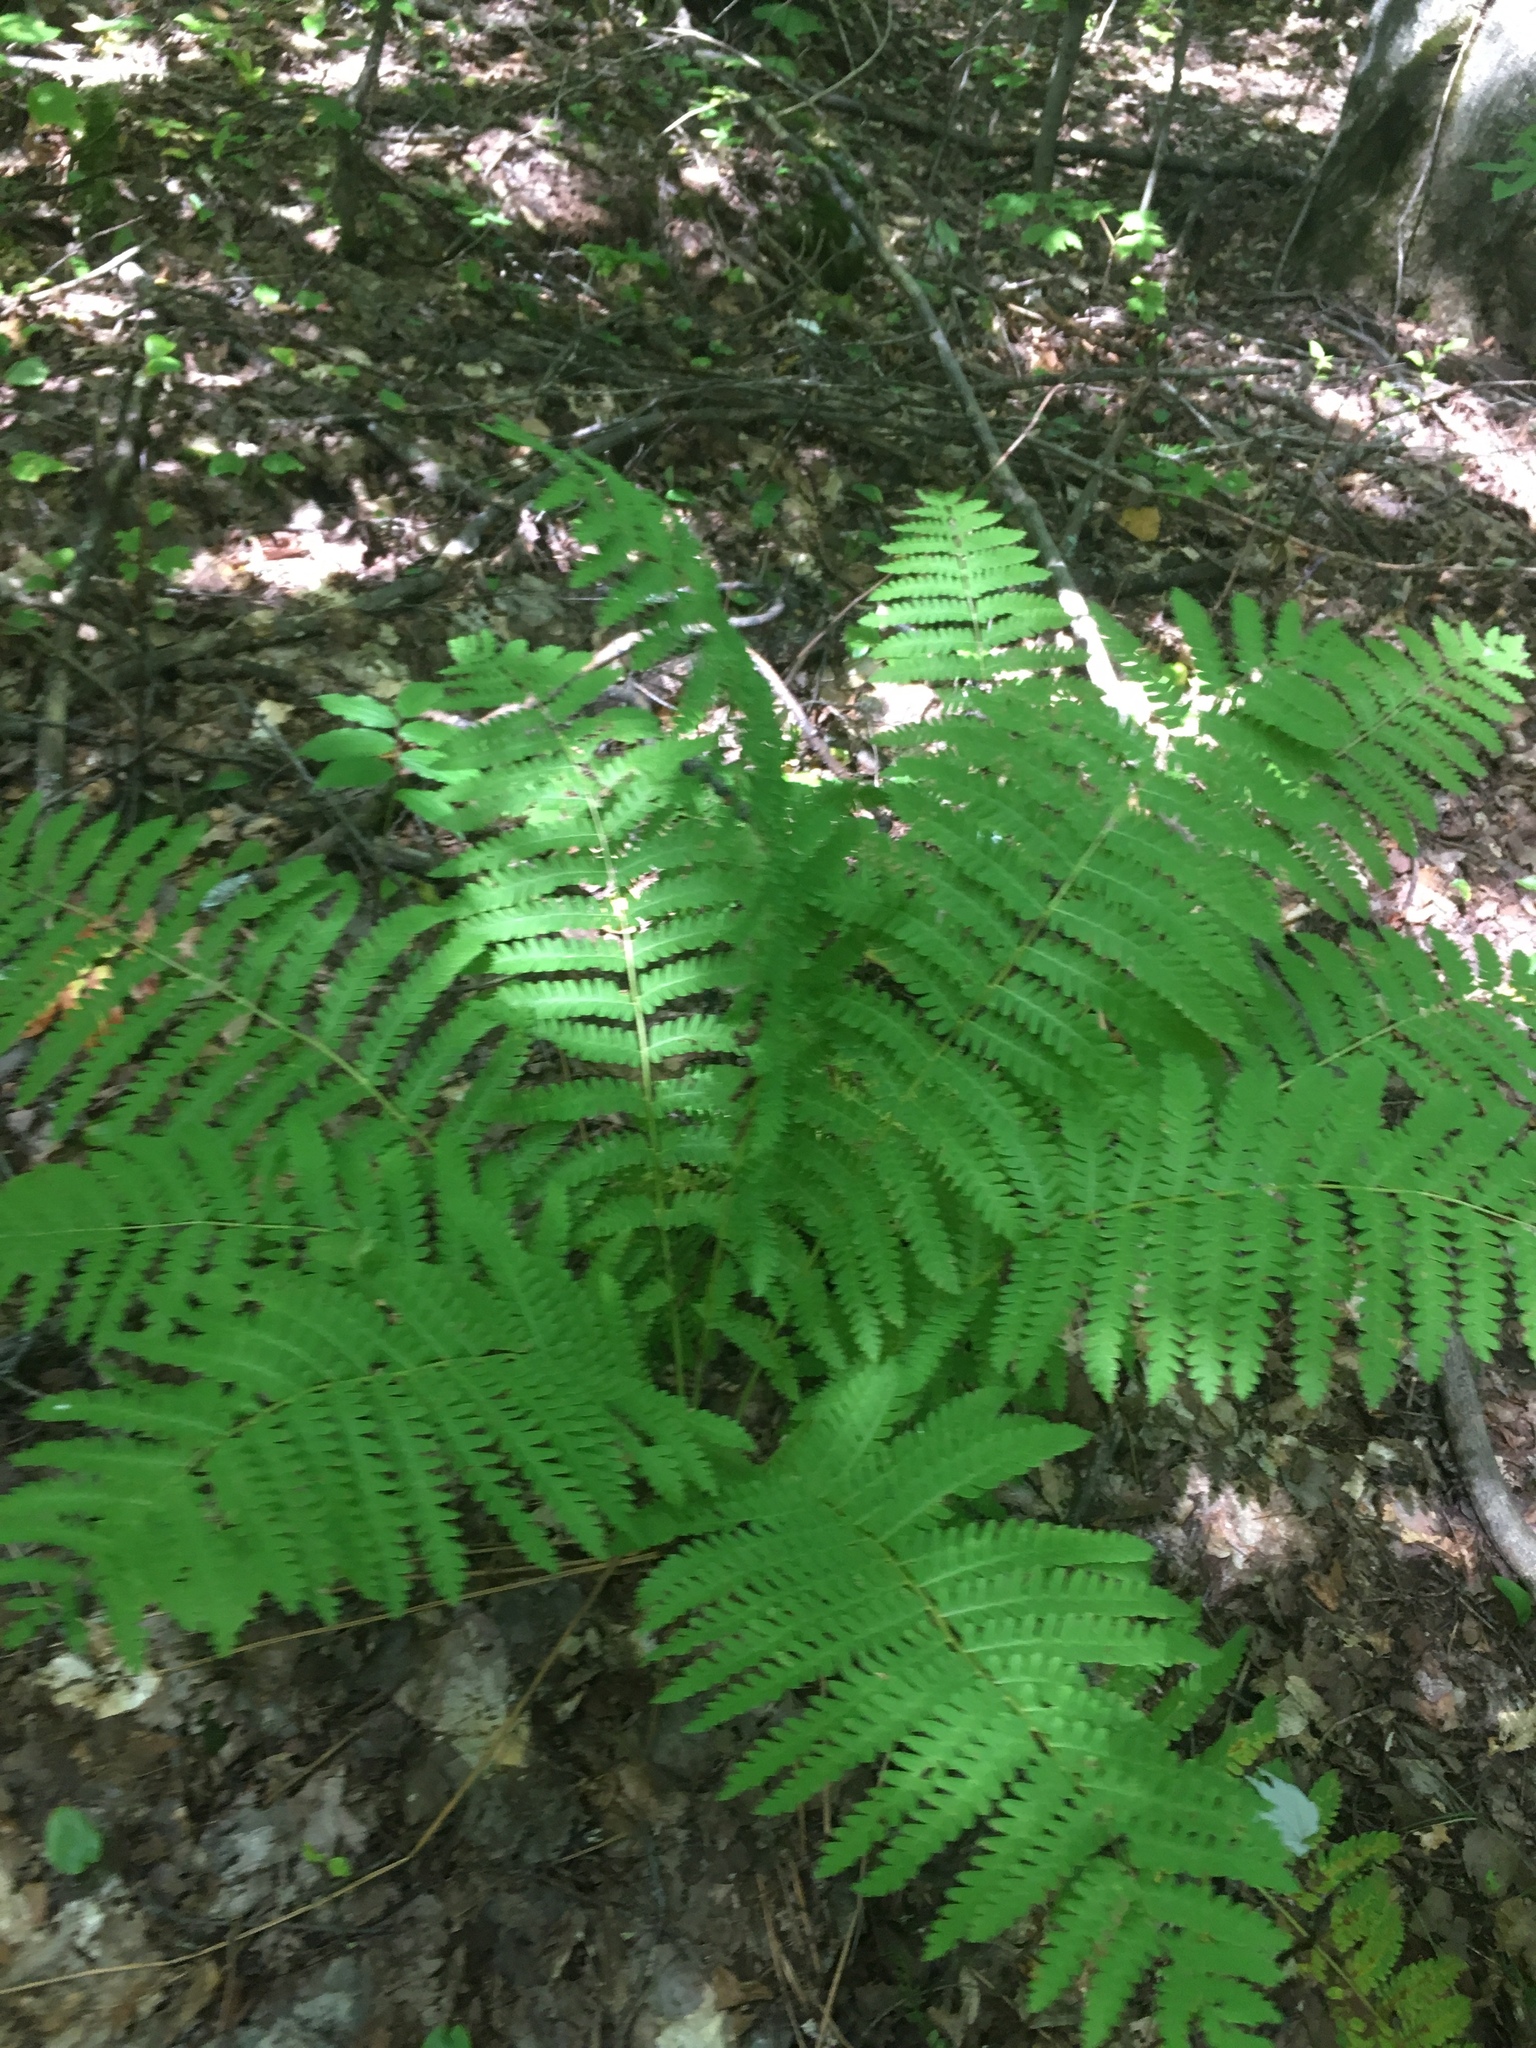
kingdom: Plantae
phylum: Tracheophyta
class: Polypodiopsida
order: Osmundales
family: Osmundaceae
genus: Claytosmunda
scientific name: Claytosmunda claytoniana
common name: Clayton's fern
